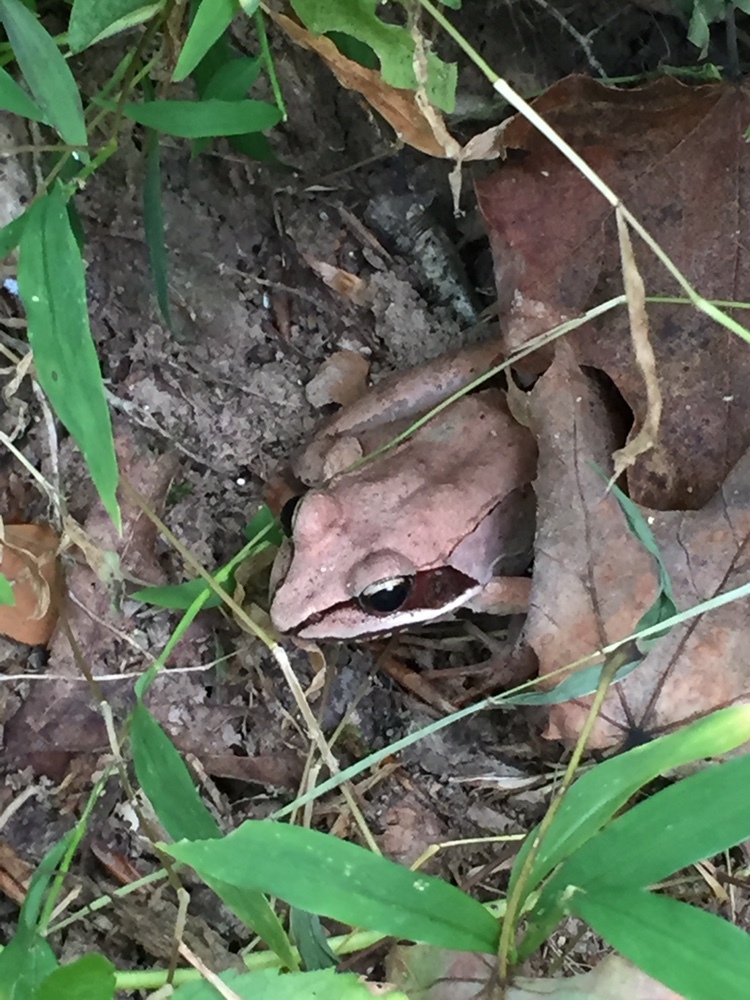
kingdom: Animalia
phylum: Chordata
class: Amphibia
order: Anura
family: Ranidae
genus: Lithobates
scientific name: Lithobates sylvaticus
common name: Wood frog
